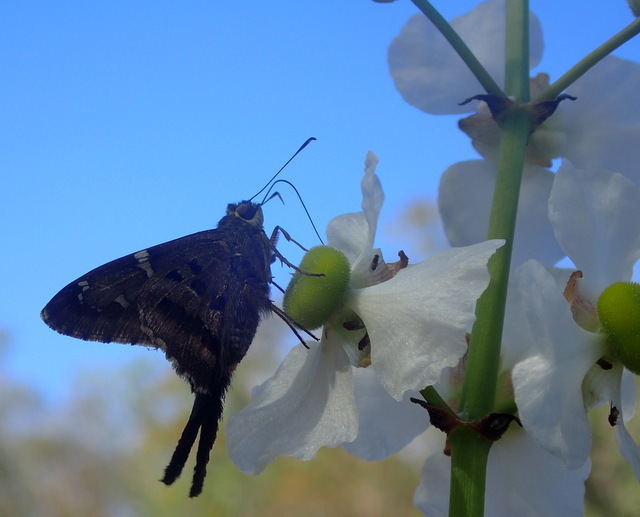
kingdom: Animalia
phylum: Arthropoda
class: Insecta
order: Lepidoptera
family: Hesperiidae
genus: Urbanus
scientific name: Urbanus proteus
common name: Long-tailed skipper
